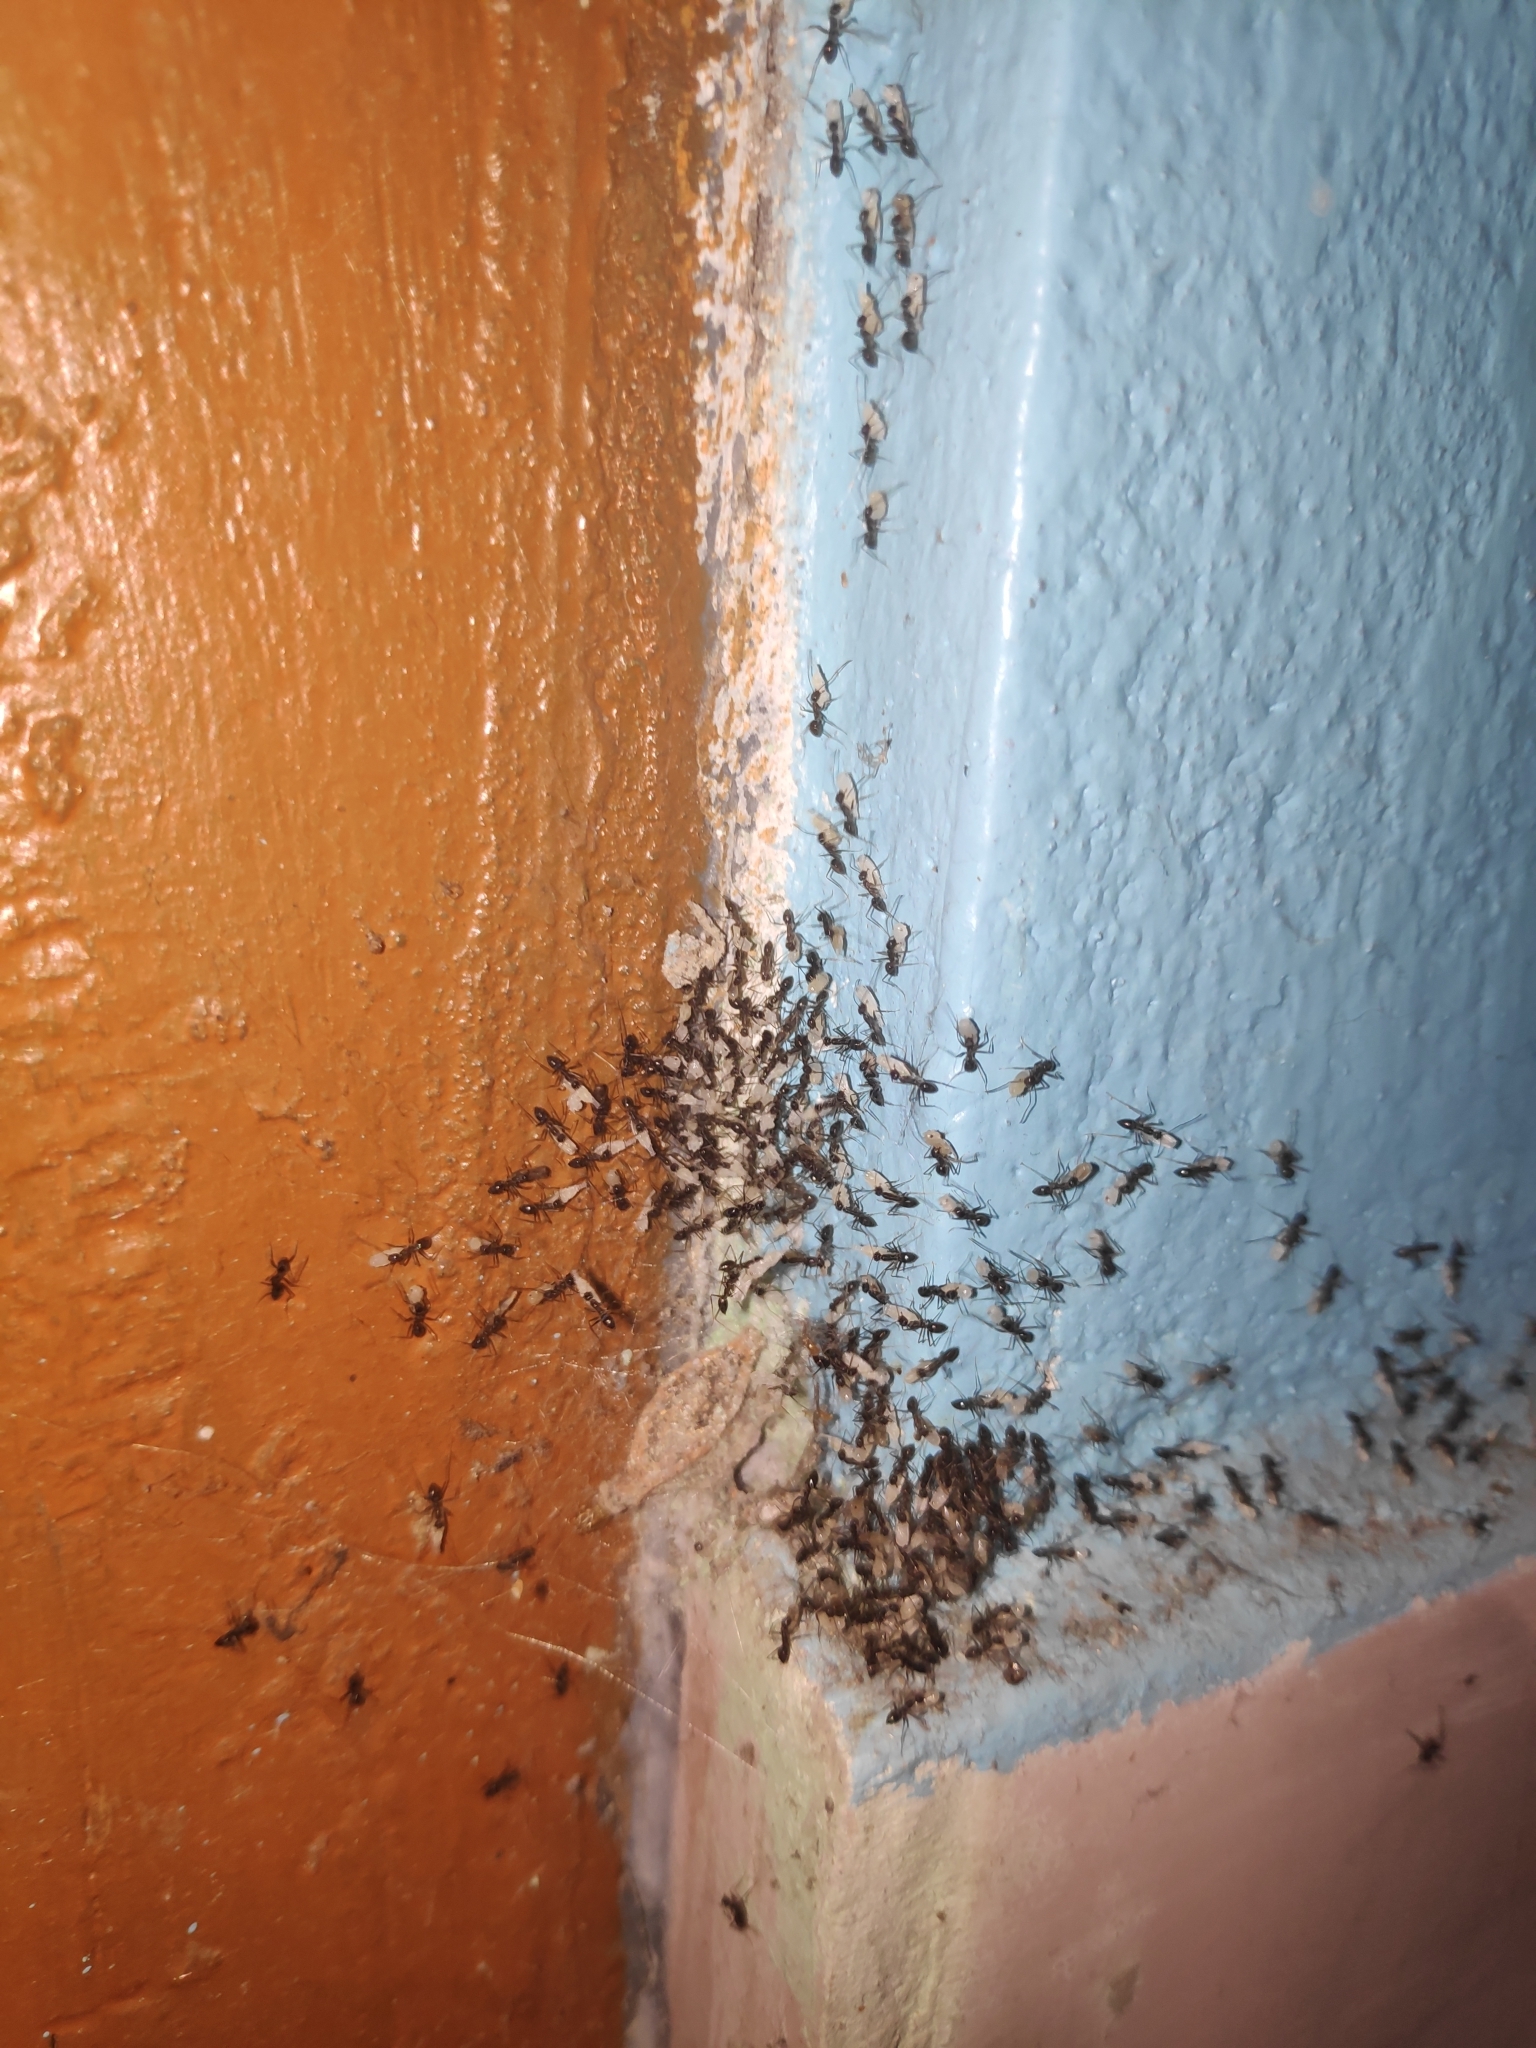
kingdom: Animalia
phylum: Arthropoda
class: Insecta
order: Hymenoptera
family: Formicidae
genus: Paratrechina
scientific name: Paratrechina longicornis
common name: Longhorned crazy ant
